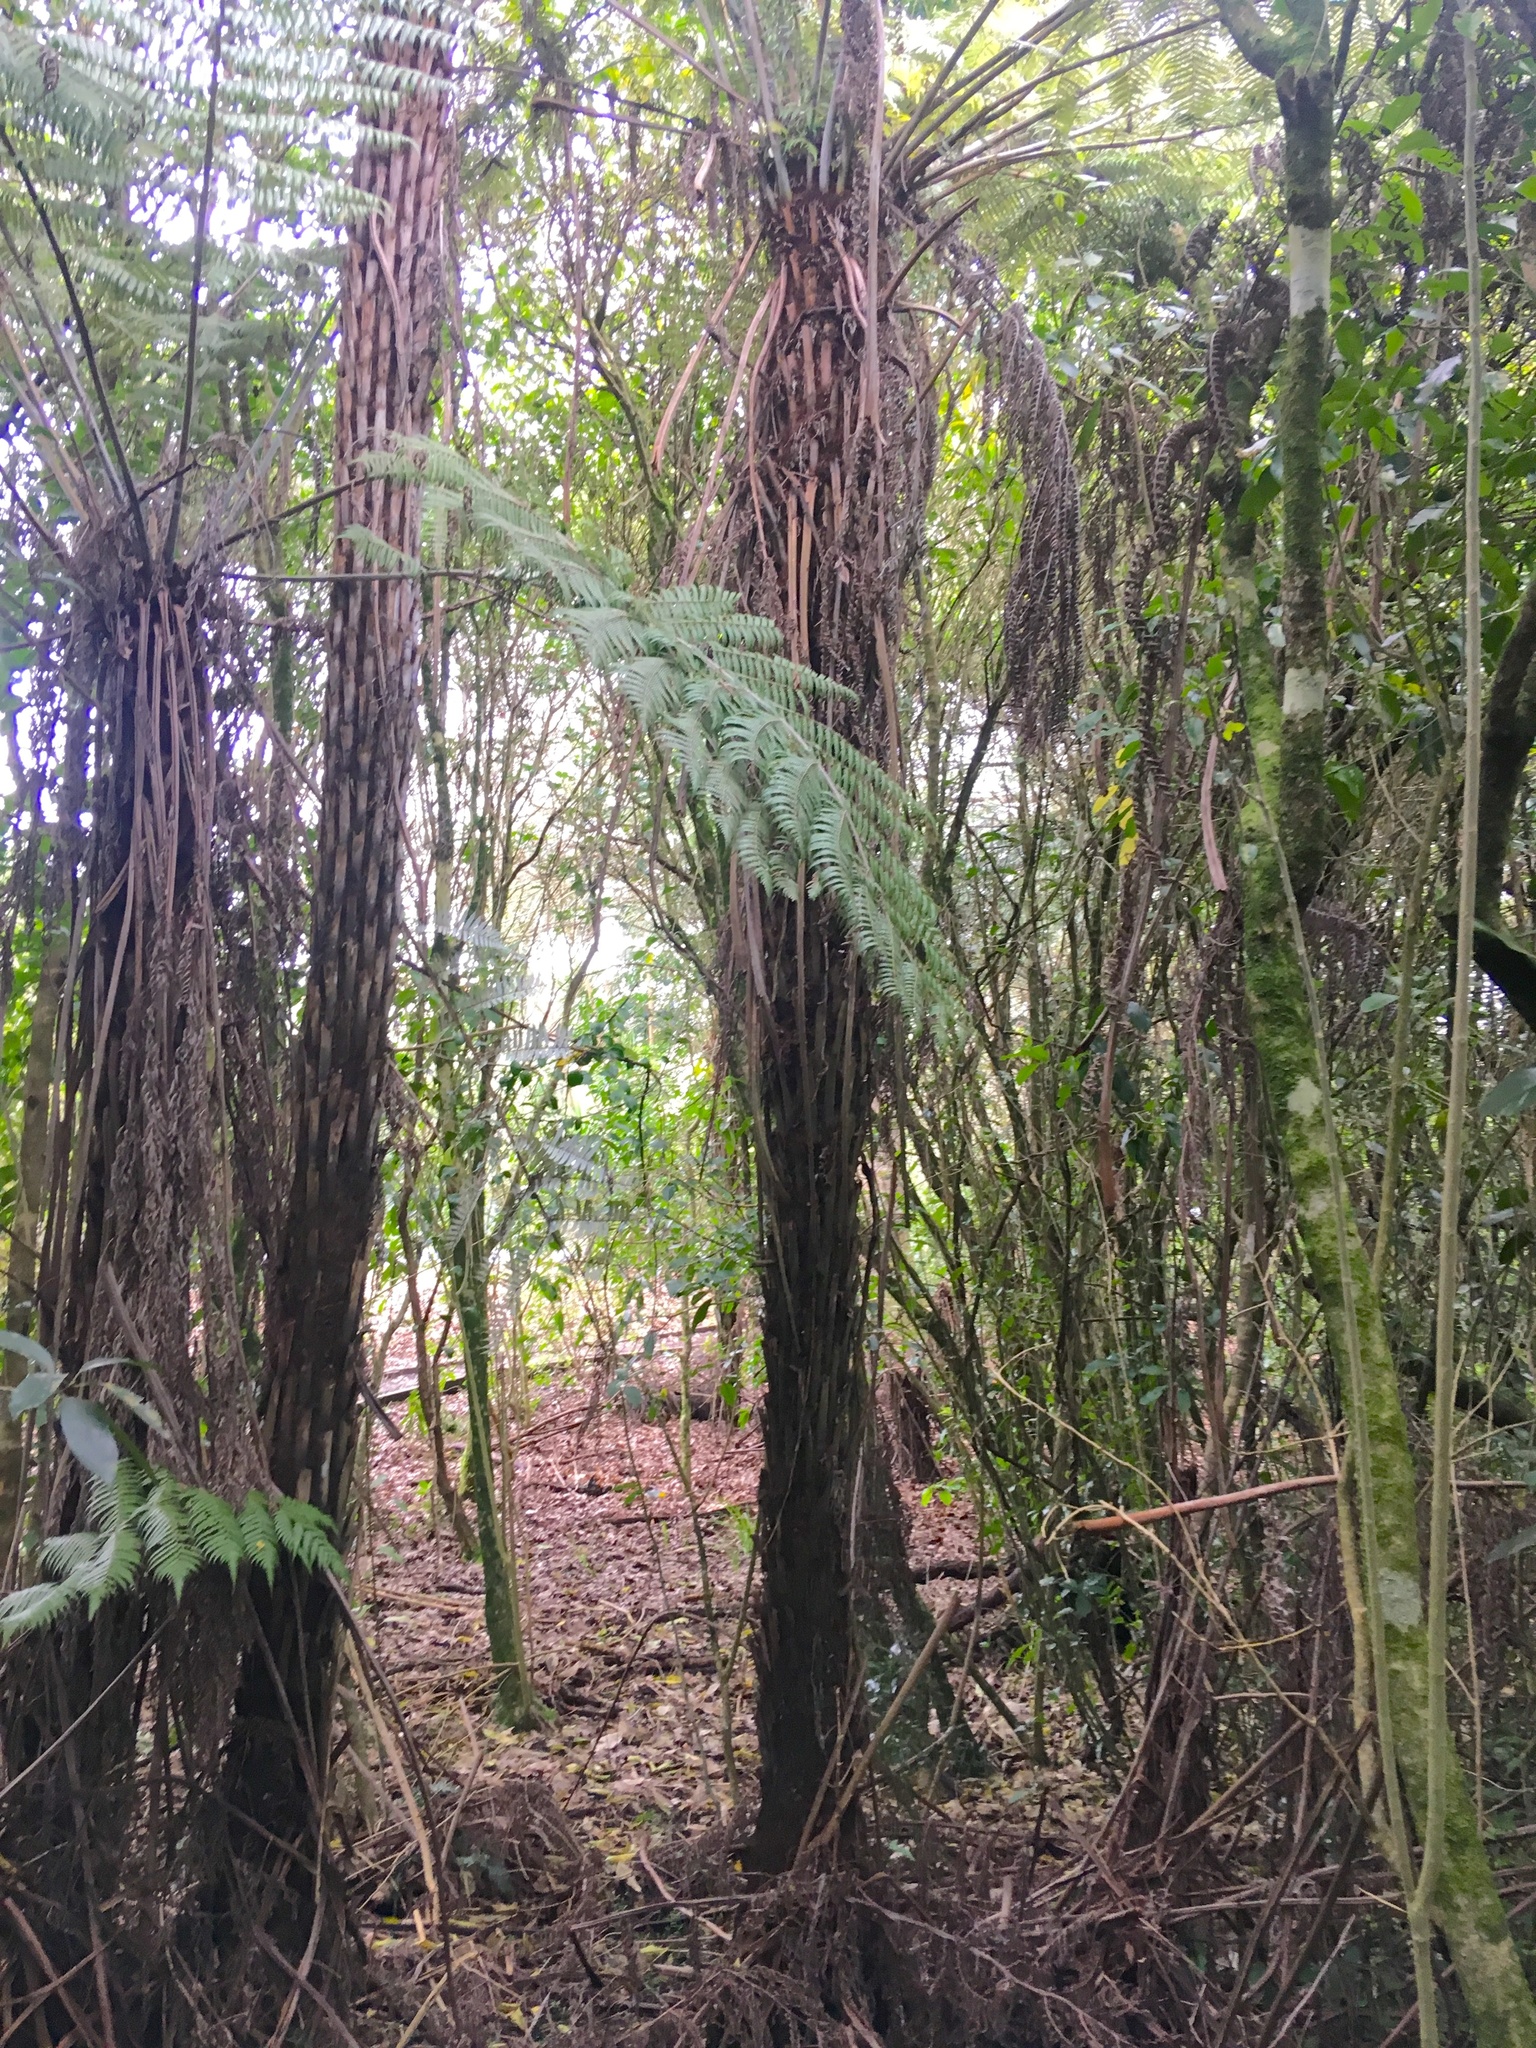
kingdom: Plantae
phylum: Tracheophyta
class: Polypodiopsida
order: Cyatheales
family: Cyatheaceae
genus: Alsophila
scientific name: Alsophila dealbata
